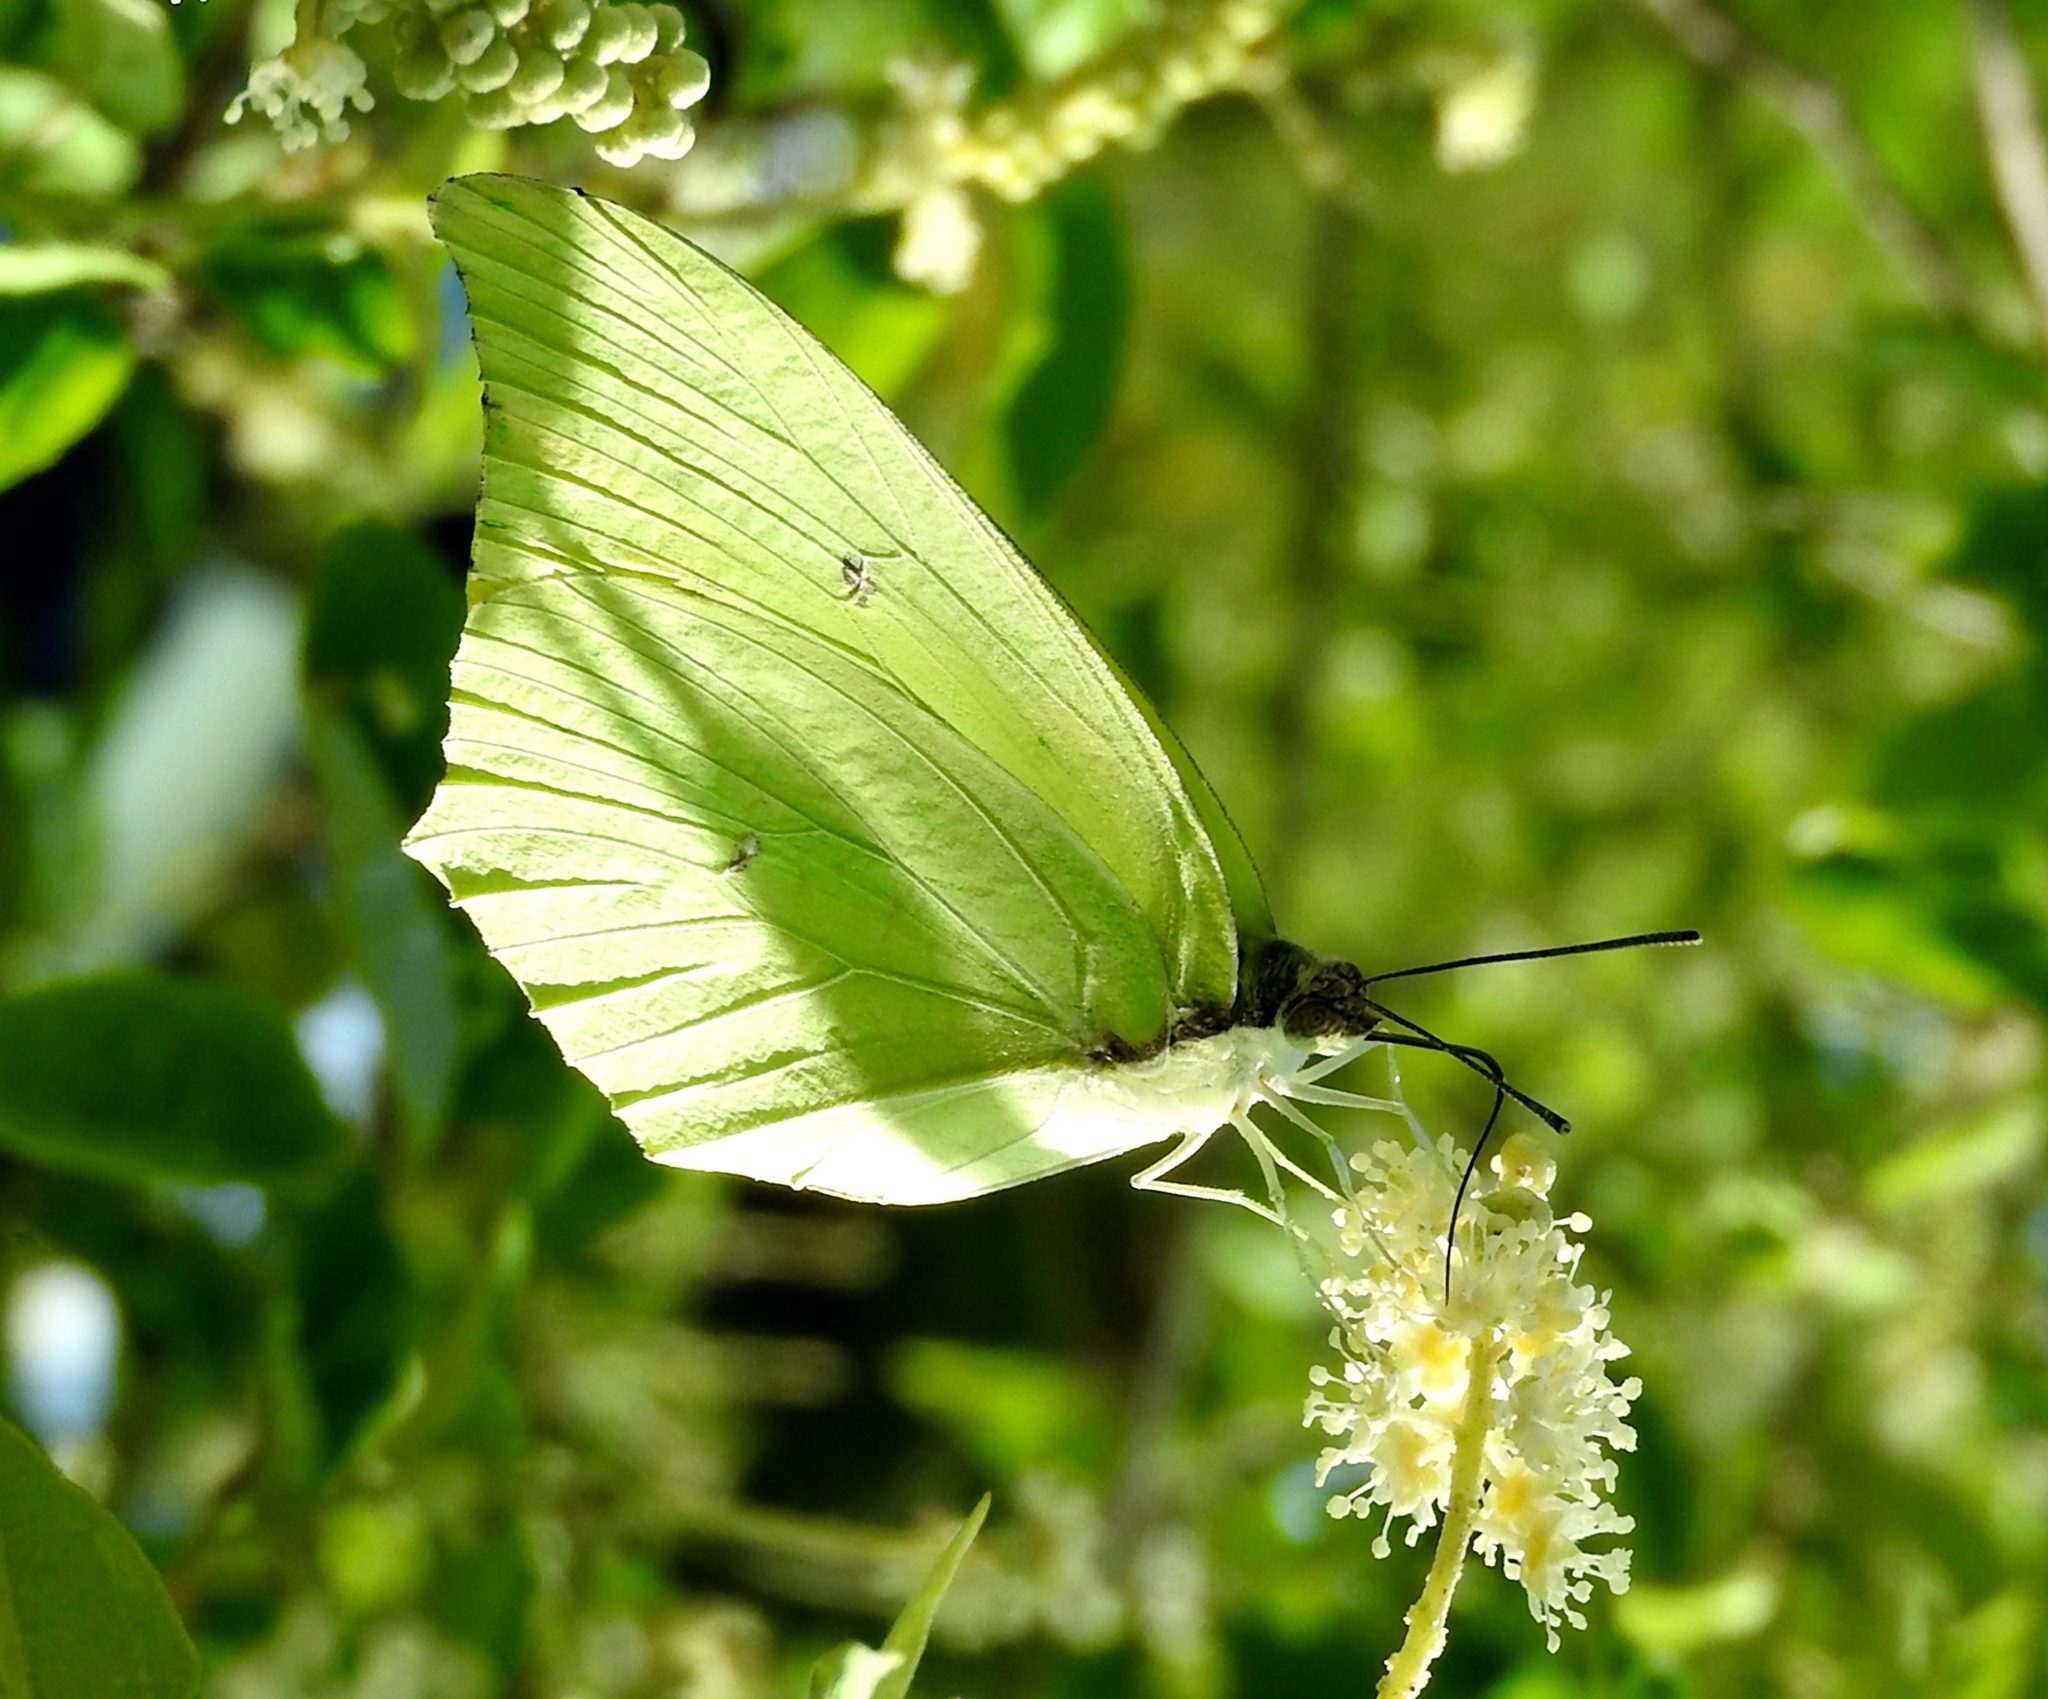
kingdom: Animalia
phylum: Arthropoda
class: Insecta
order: Lepidoptera
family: Pieridae
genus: Anteos
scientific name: Anteos maerula
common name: Angled sulphur
